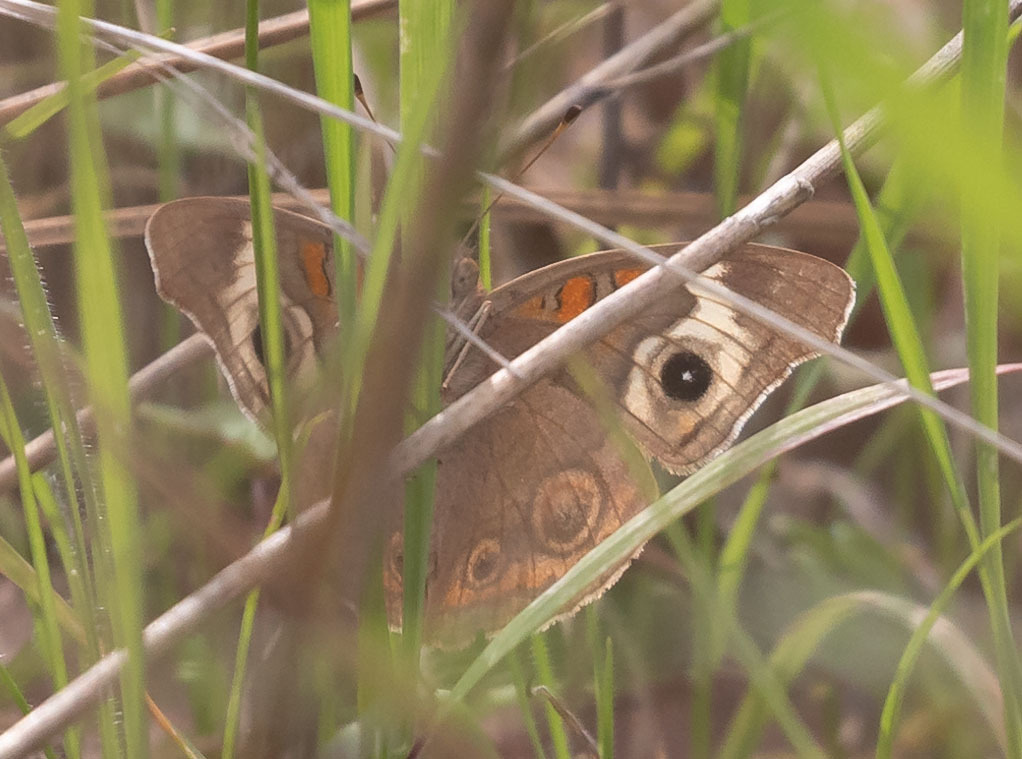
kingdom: Animalia
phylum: Arthropoda
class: Insecta
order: Lepidoptera
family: Nymphalidae
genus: Junonia
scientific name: Junonia grisea
